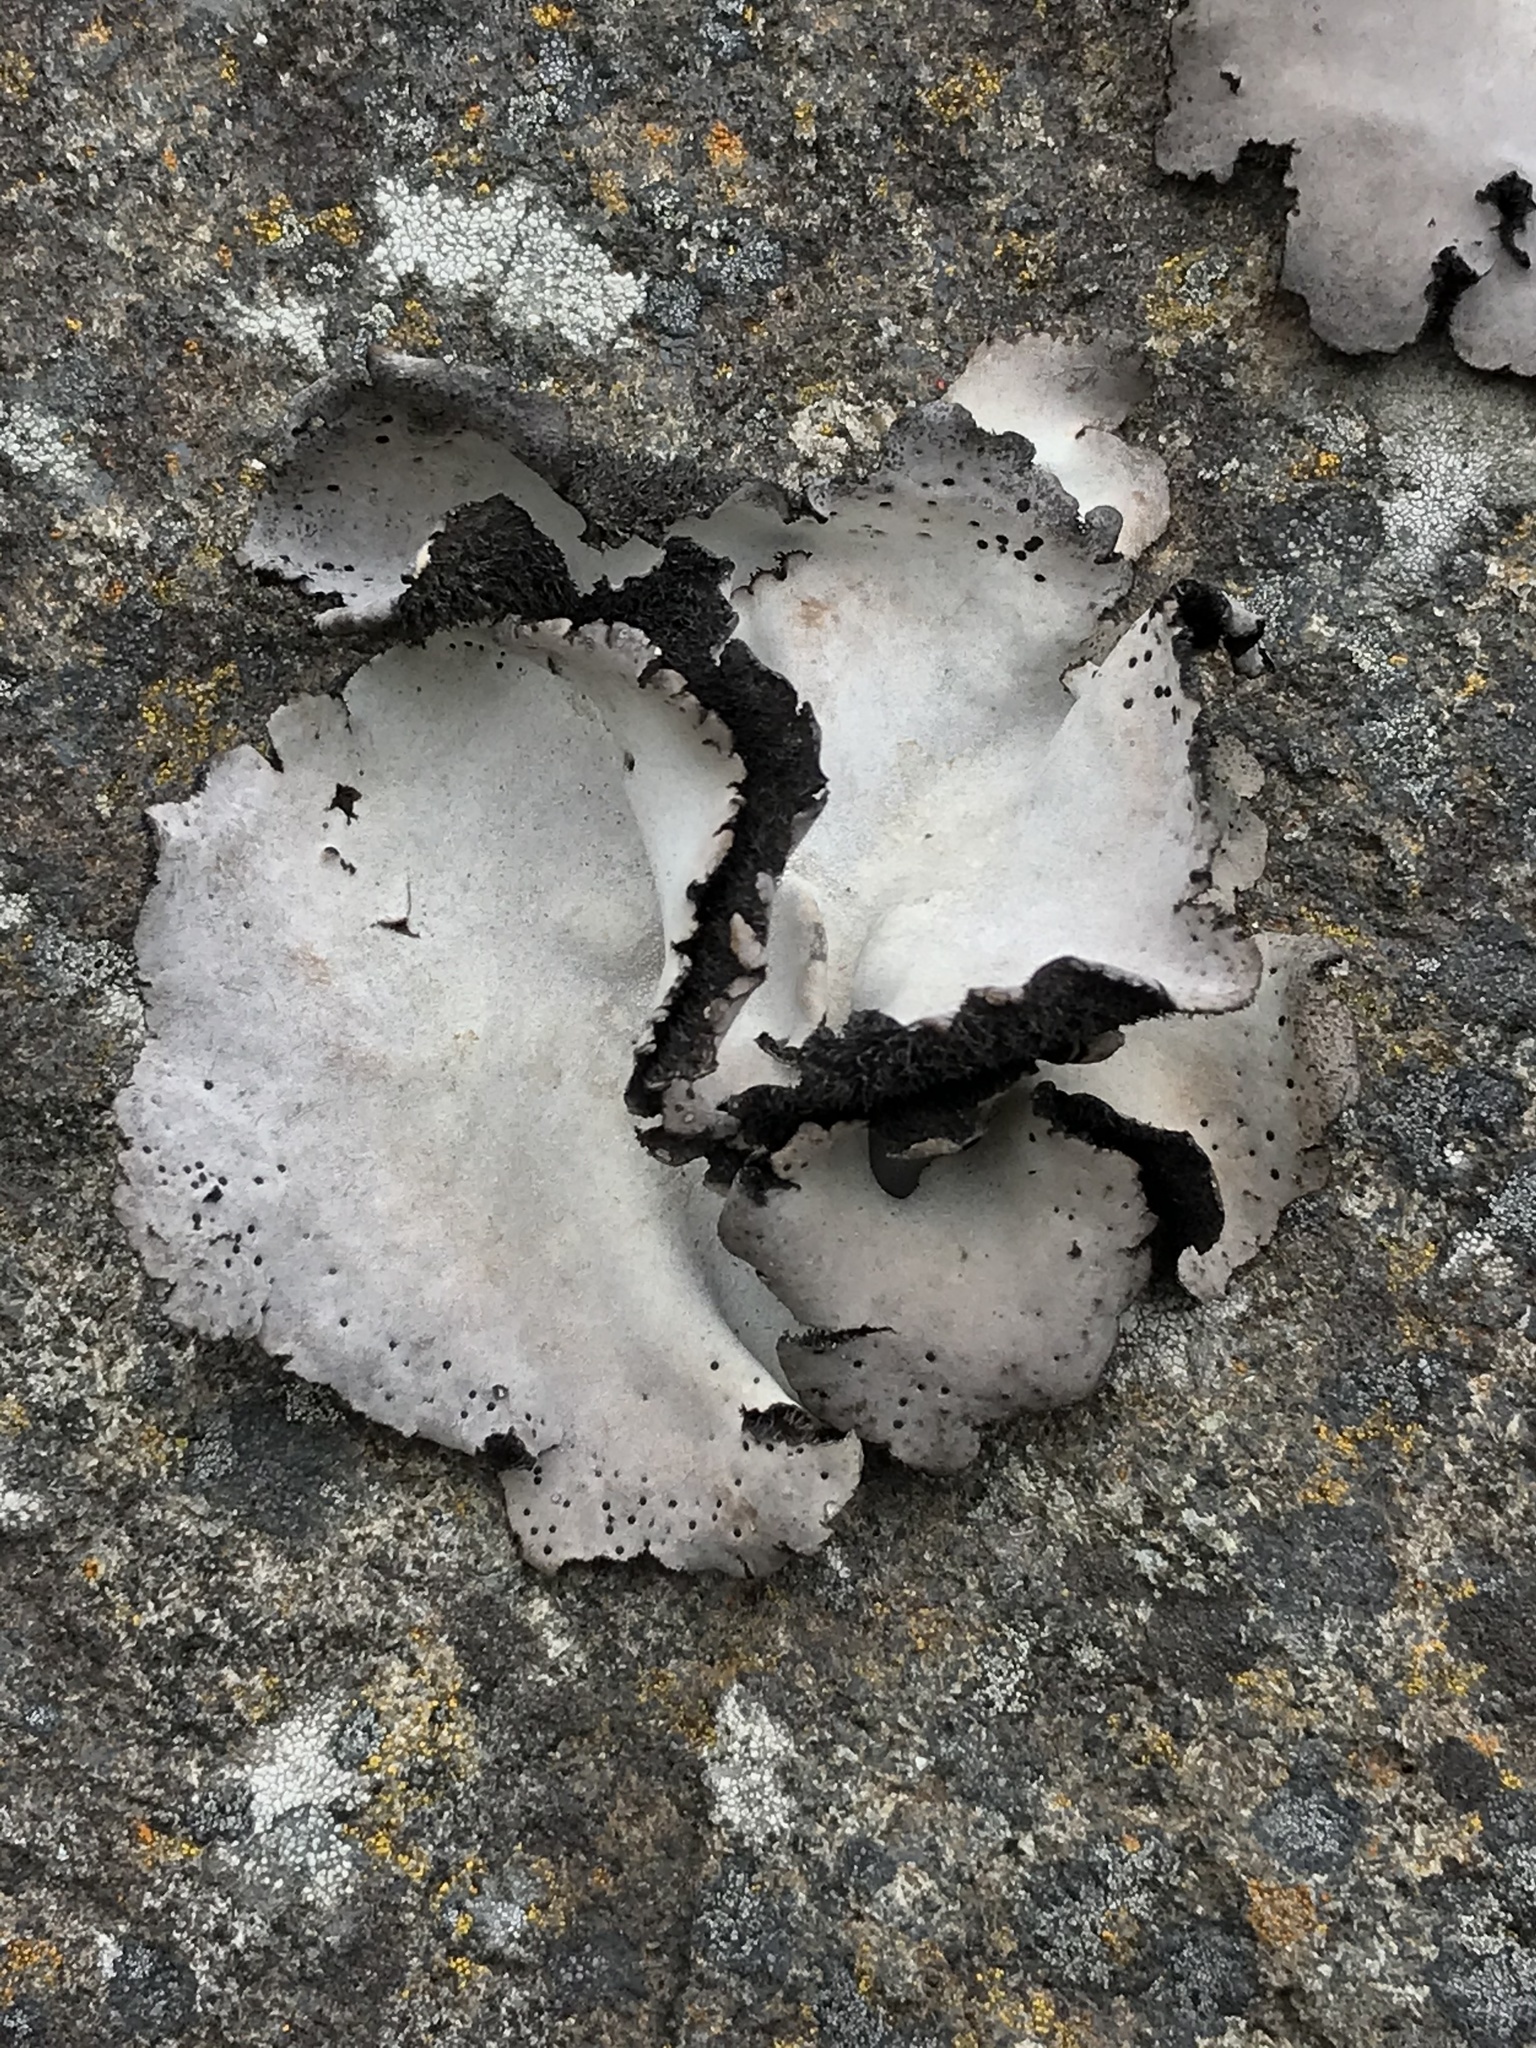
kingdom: Fungi
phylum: Ascomycota
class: Lecanoromycetes
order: Umbilicariales
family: Umbilicariaceae
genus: Umbilicaria
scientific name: Umbilicaria americana
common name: Frosted rock tripe
